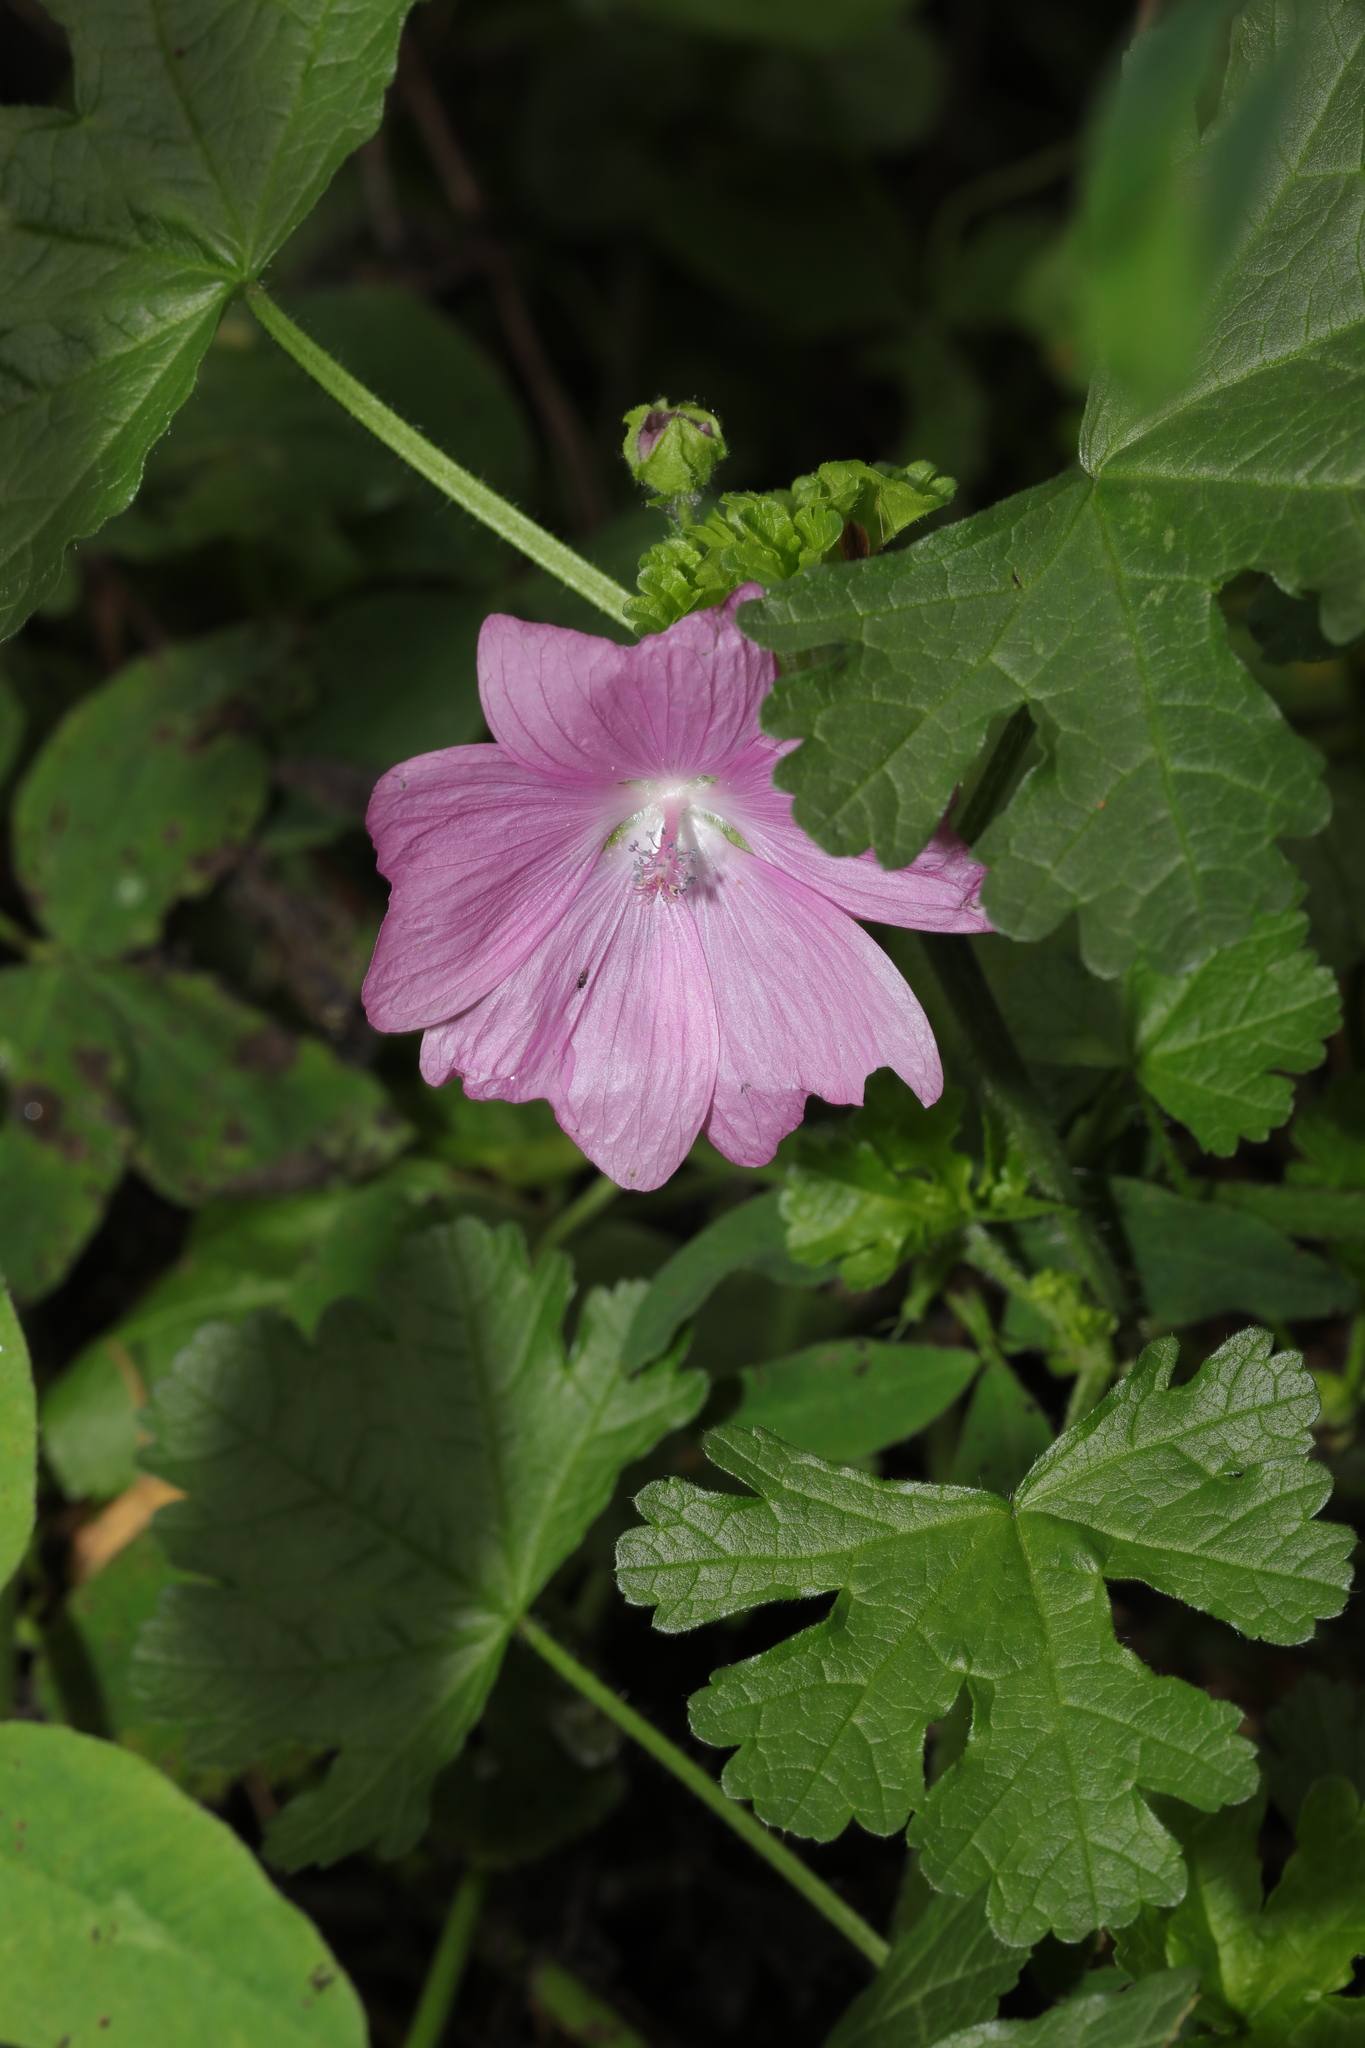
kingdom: Plantae
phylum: Tracheophyta
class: Magnoliopsida
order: Malvales
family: Malvaceae
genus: Malva
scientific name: Malva moschata
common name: Musk mallow
